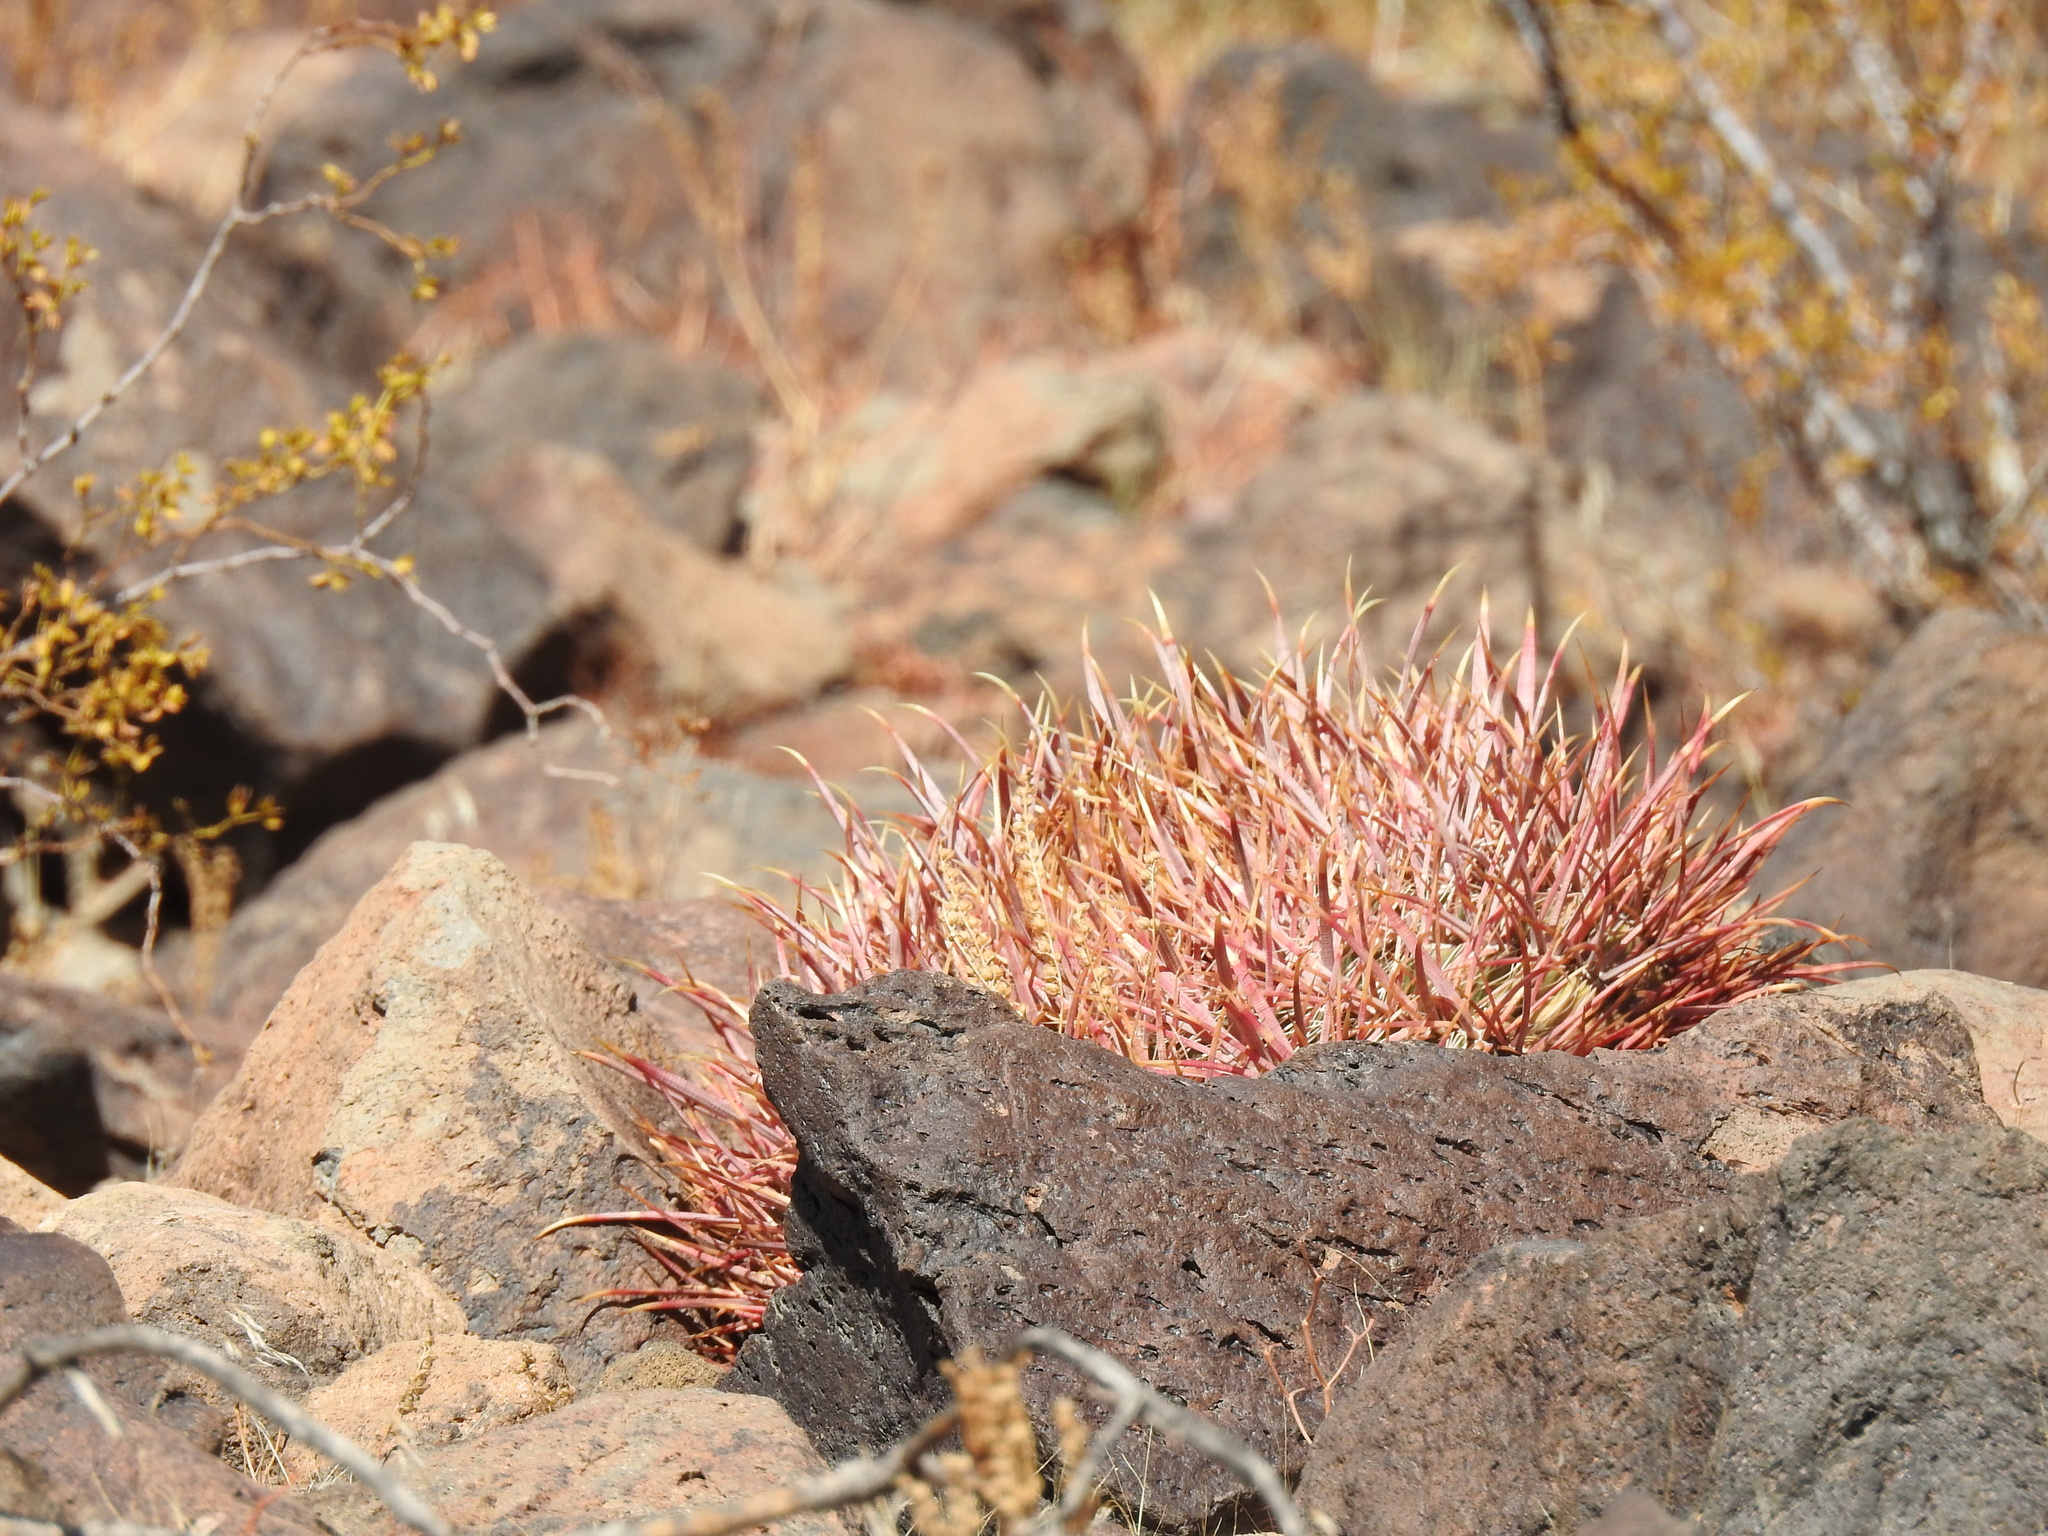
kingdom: Plantae
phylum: Tracheophyta
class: Magnoliopsida
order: Caryophyllales
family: Cactaceae
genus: Ferocactus
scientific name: Ferocactus cylindraceus
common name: California barrel cactus
